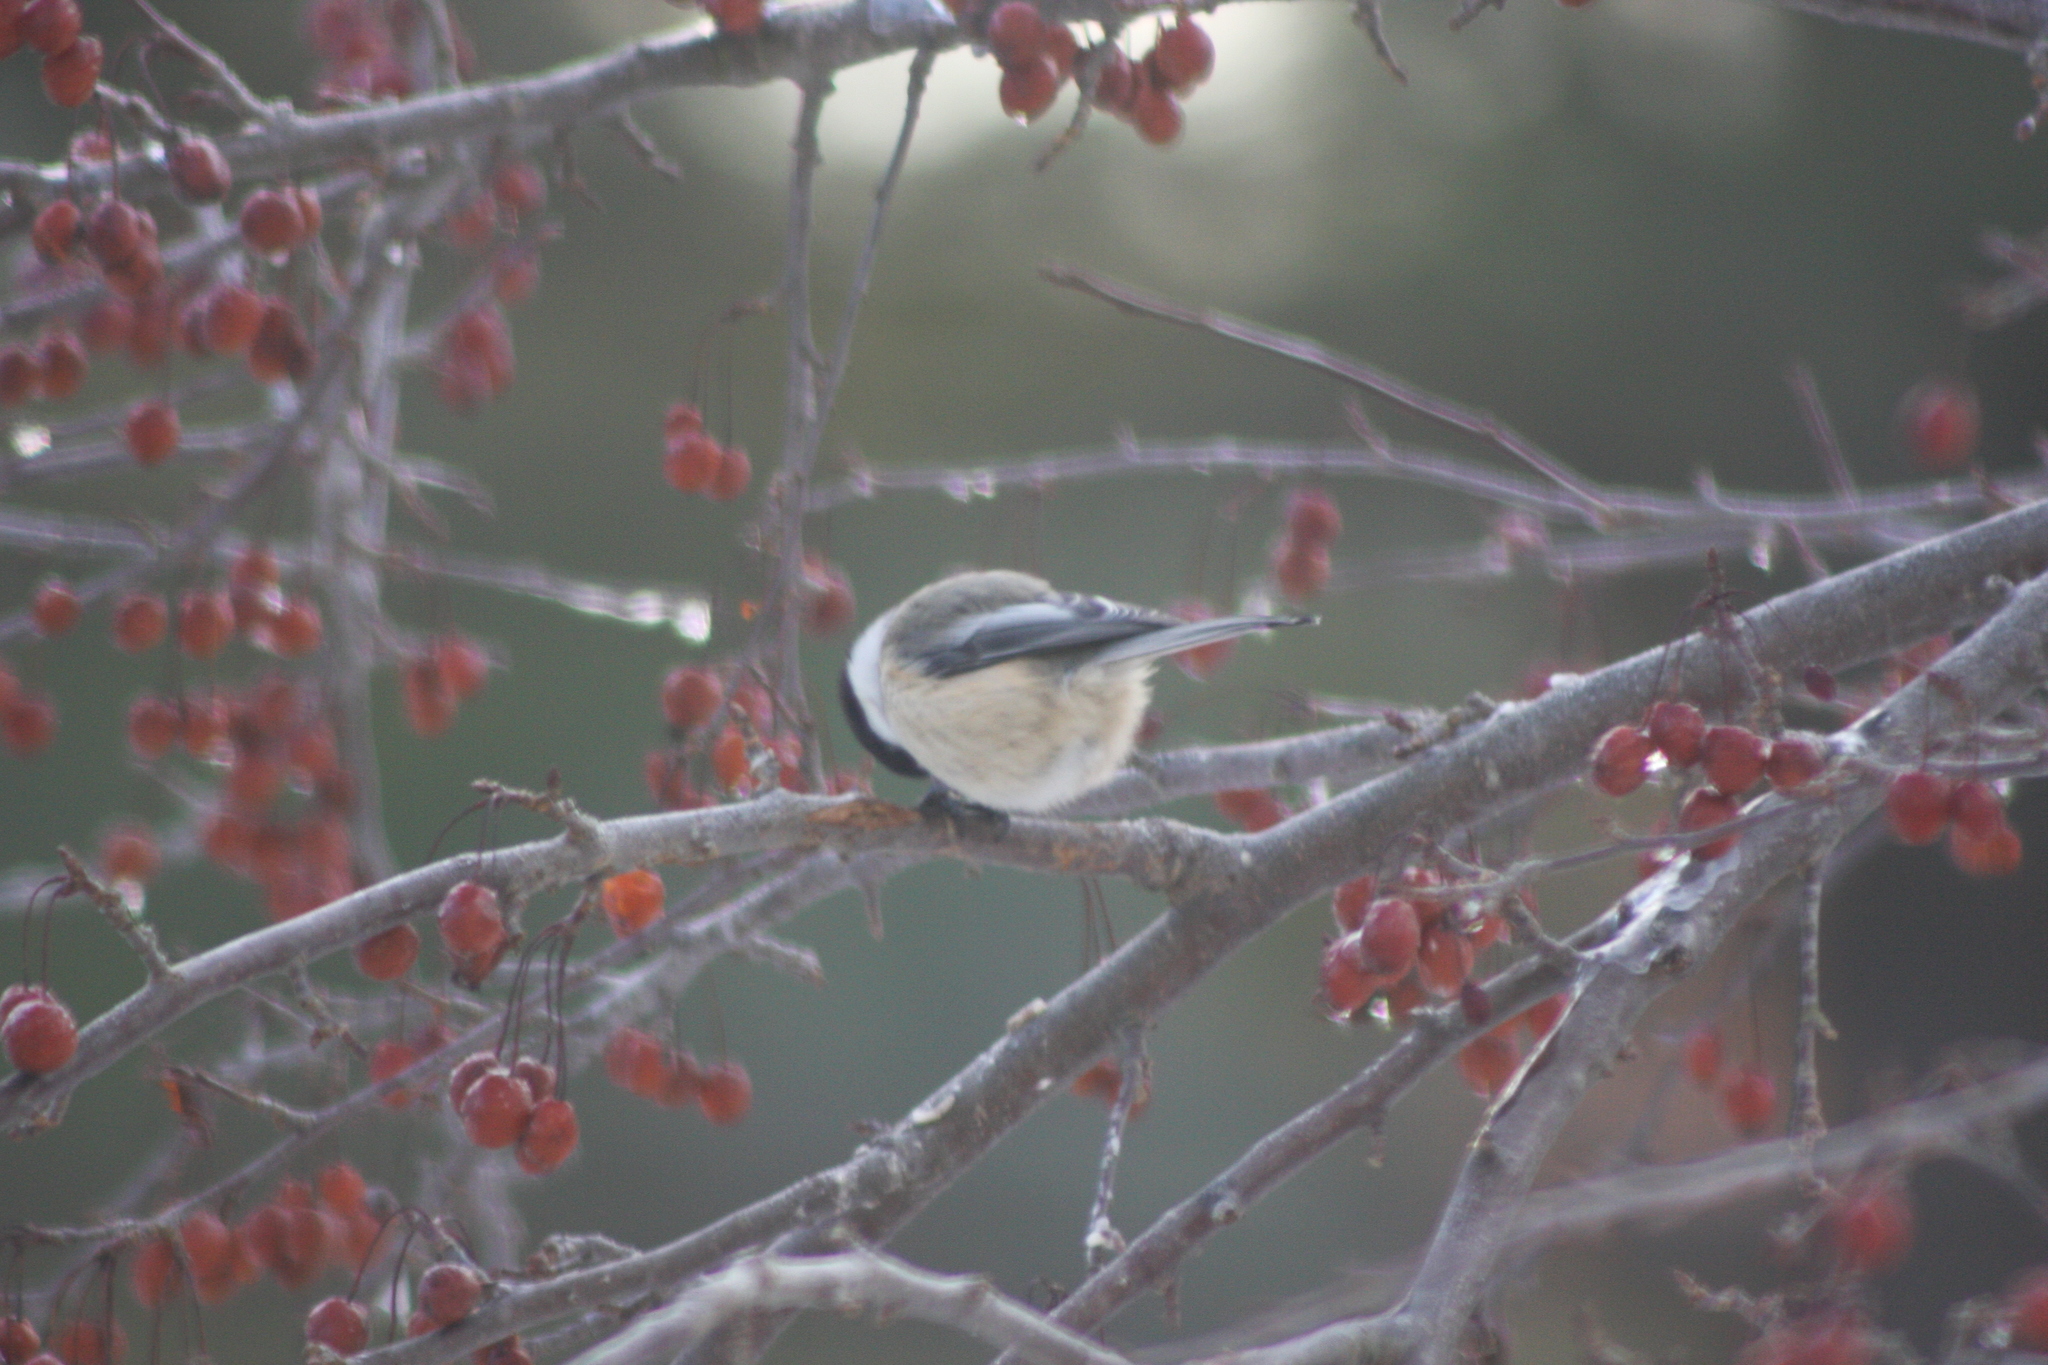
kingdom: Animalia
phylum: Chordata
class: Aves
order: Passeriformes
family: Paridae
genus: Poecile
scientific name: Poecile atricapillus
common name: Black-capped chickadee
